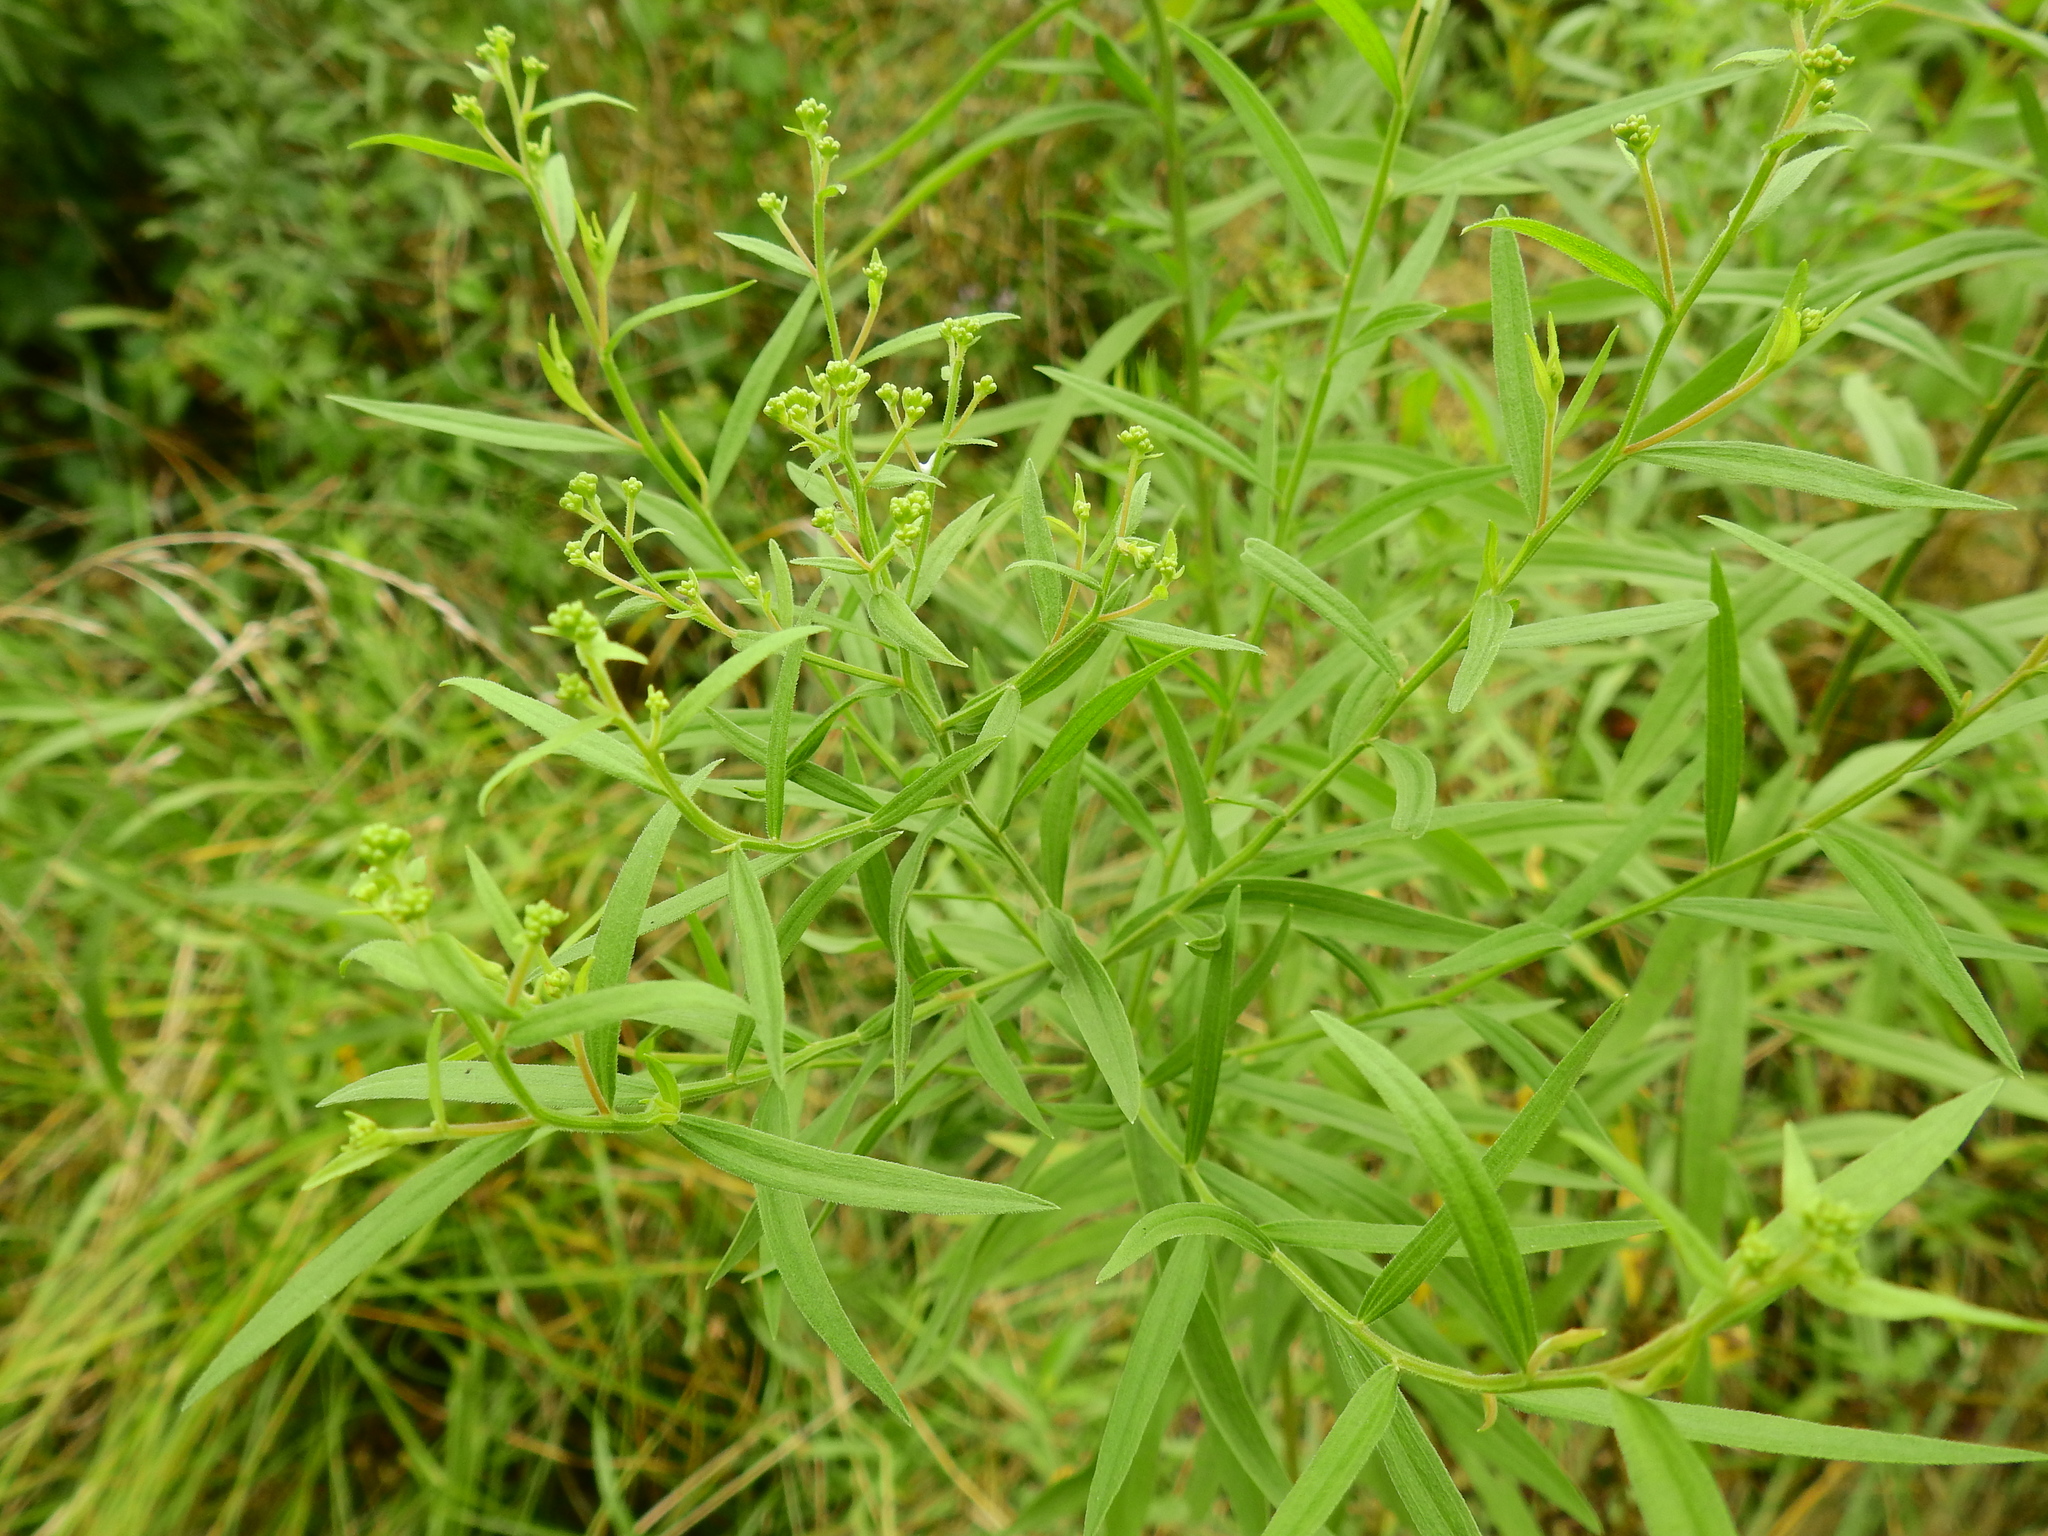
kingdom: Plantae
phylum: Tracheophyta
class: Magnoliopsida
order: Asterales
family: Asteraceae
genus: Euthamia
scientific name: Euthamia graminifolia
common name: Common goldentop
